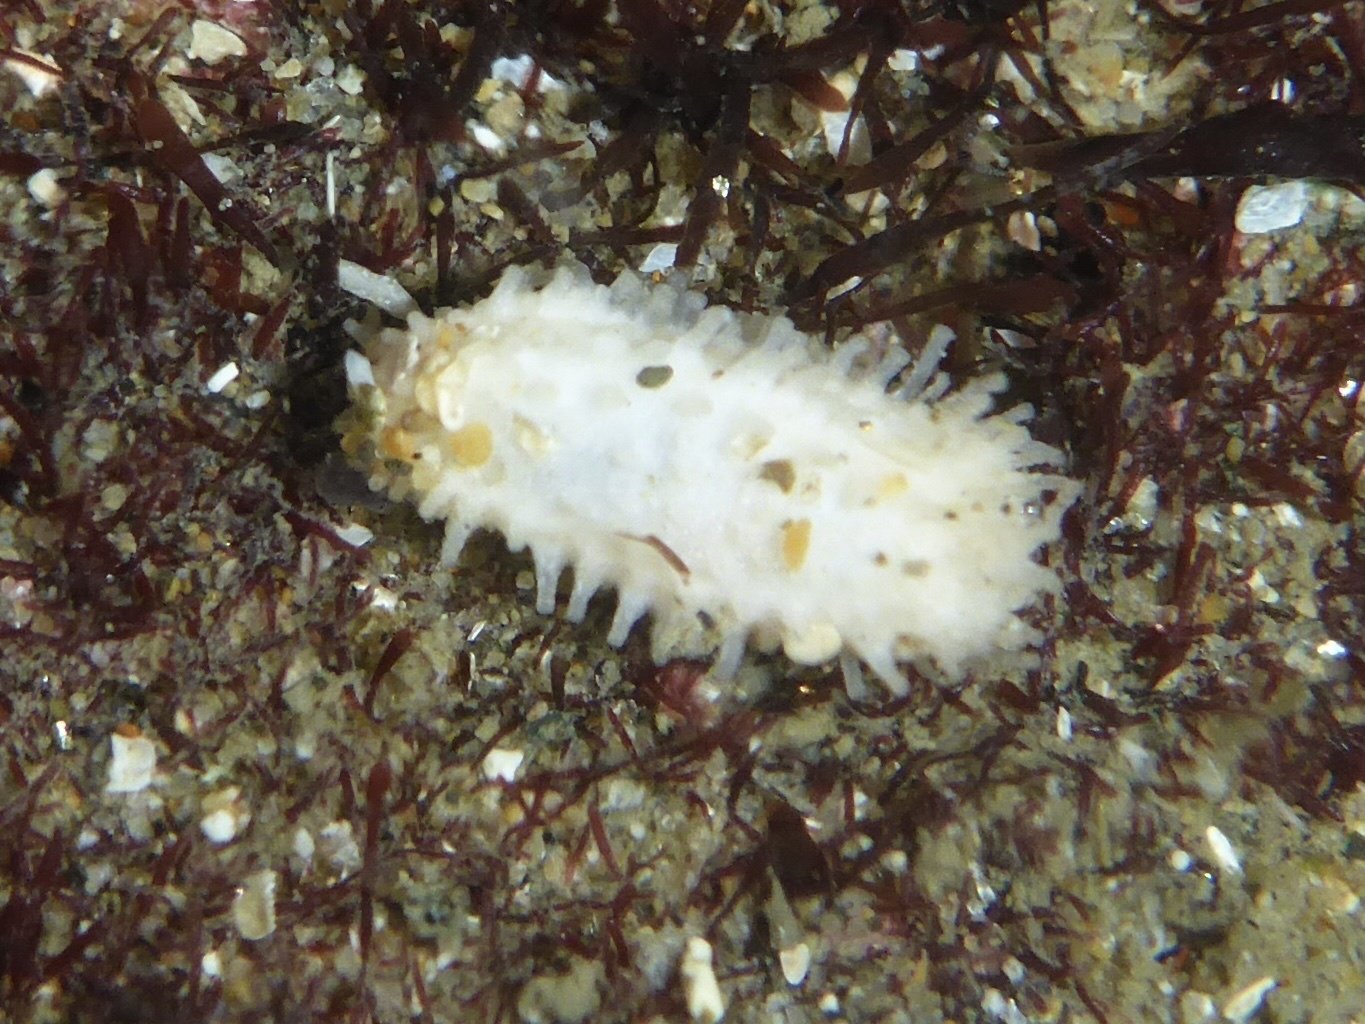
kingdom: Animalia
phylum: Echinodermata
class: Holothuroidea
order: Dendrochirotida
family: Sclerodactylidae
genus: Eupentacta
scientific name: Eupentacta quinquesemita
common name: Pentamerous sea cucumber
